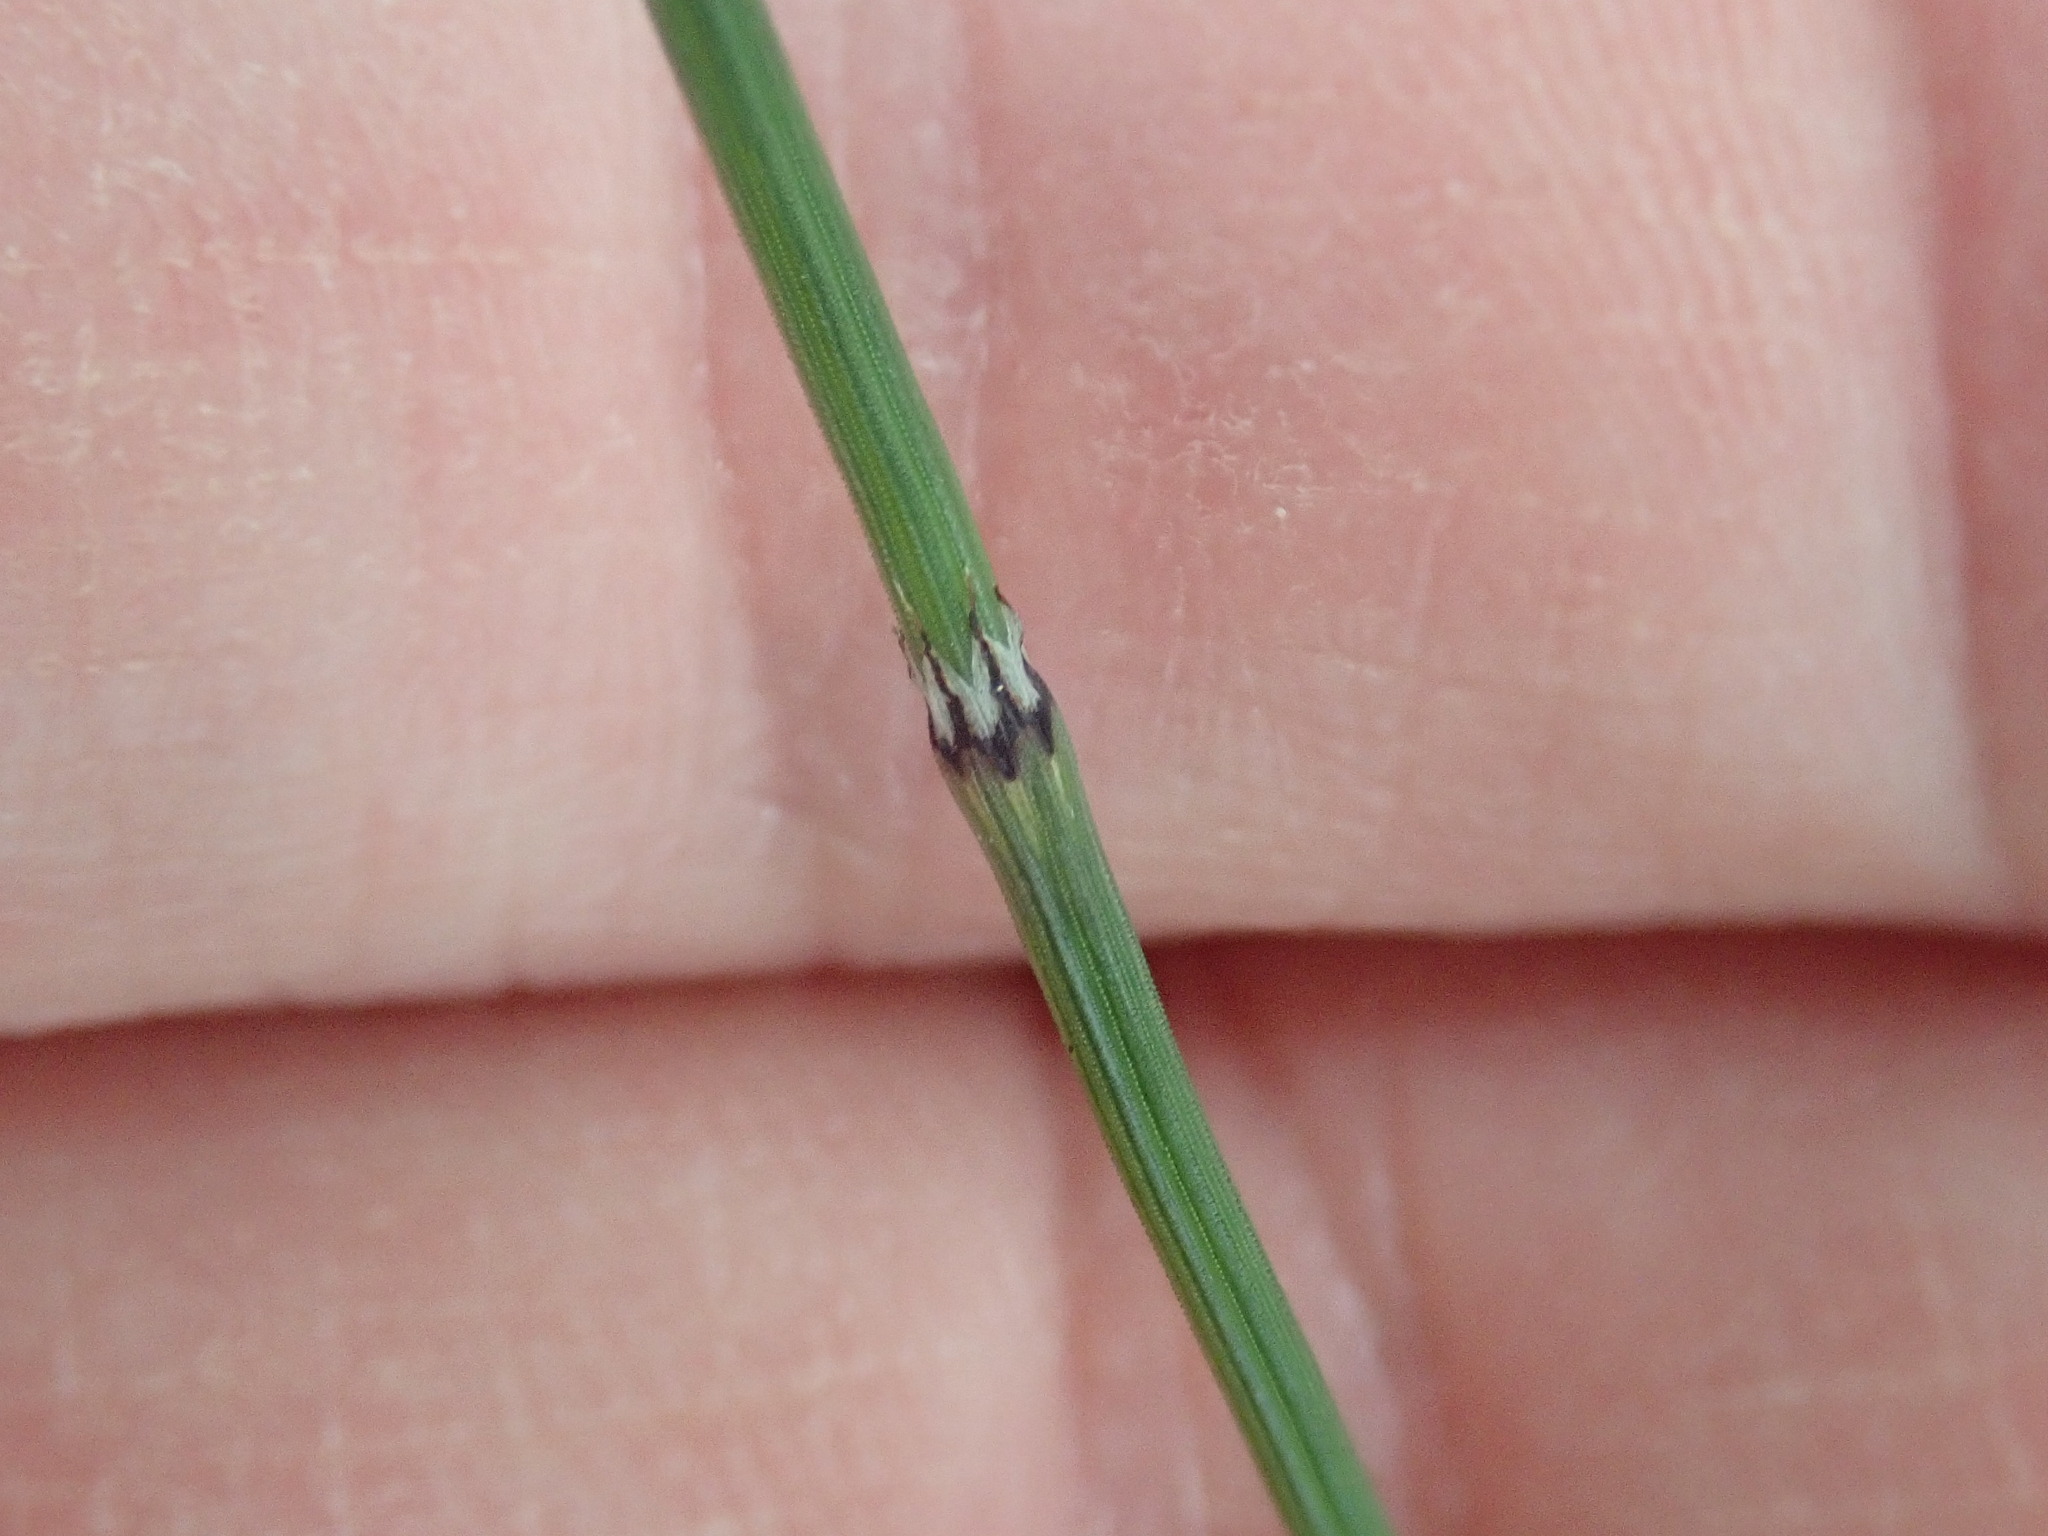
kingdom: Plantae
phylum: Tracheophyta
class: Polypodiopsida
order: Equisetales
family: Equisetaceae
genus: Equisetum
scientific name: Equisetum variegatum
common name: Variegated horsetail
